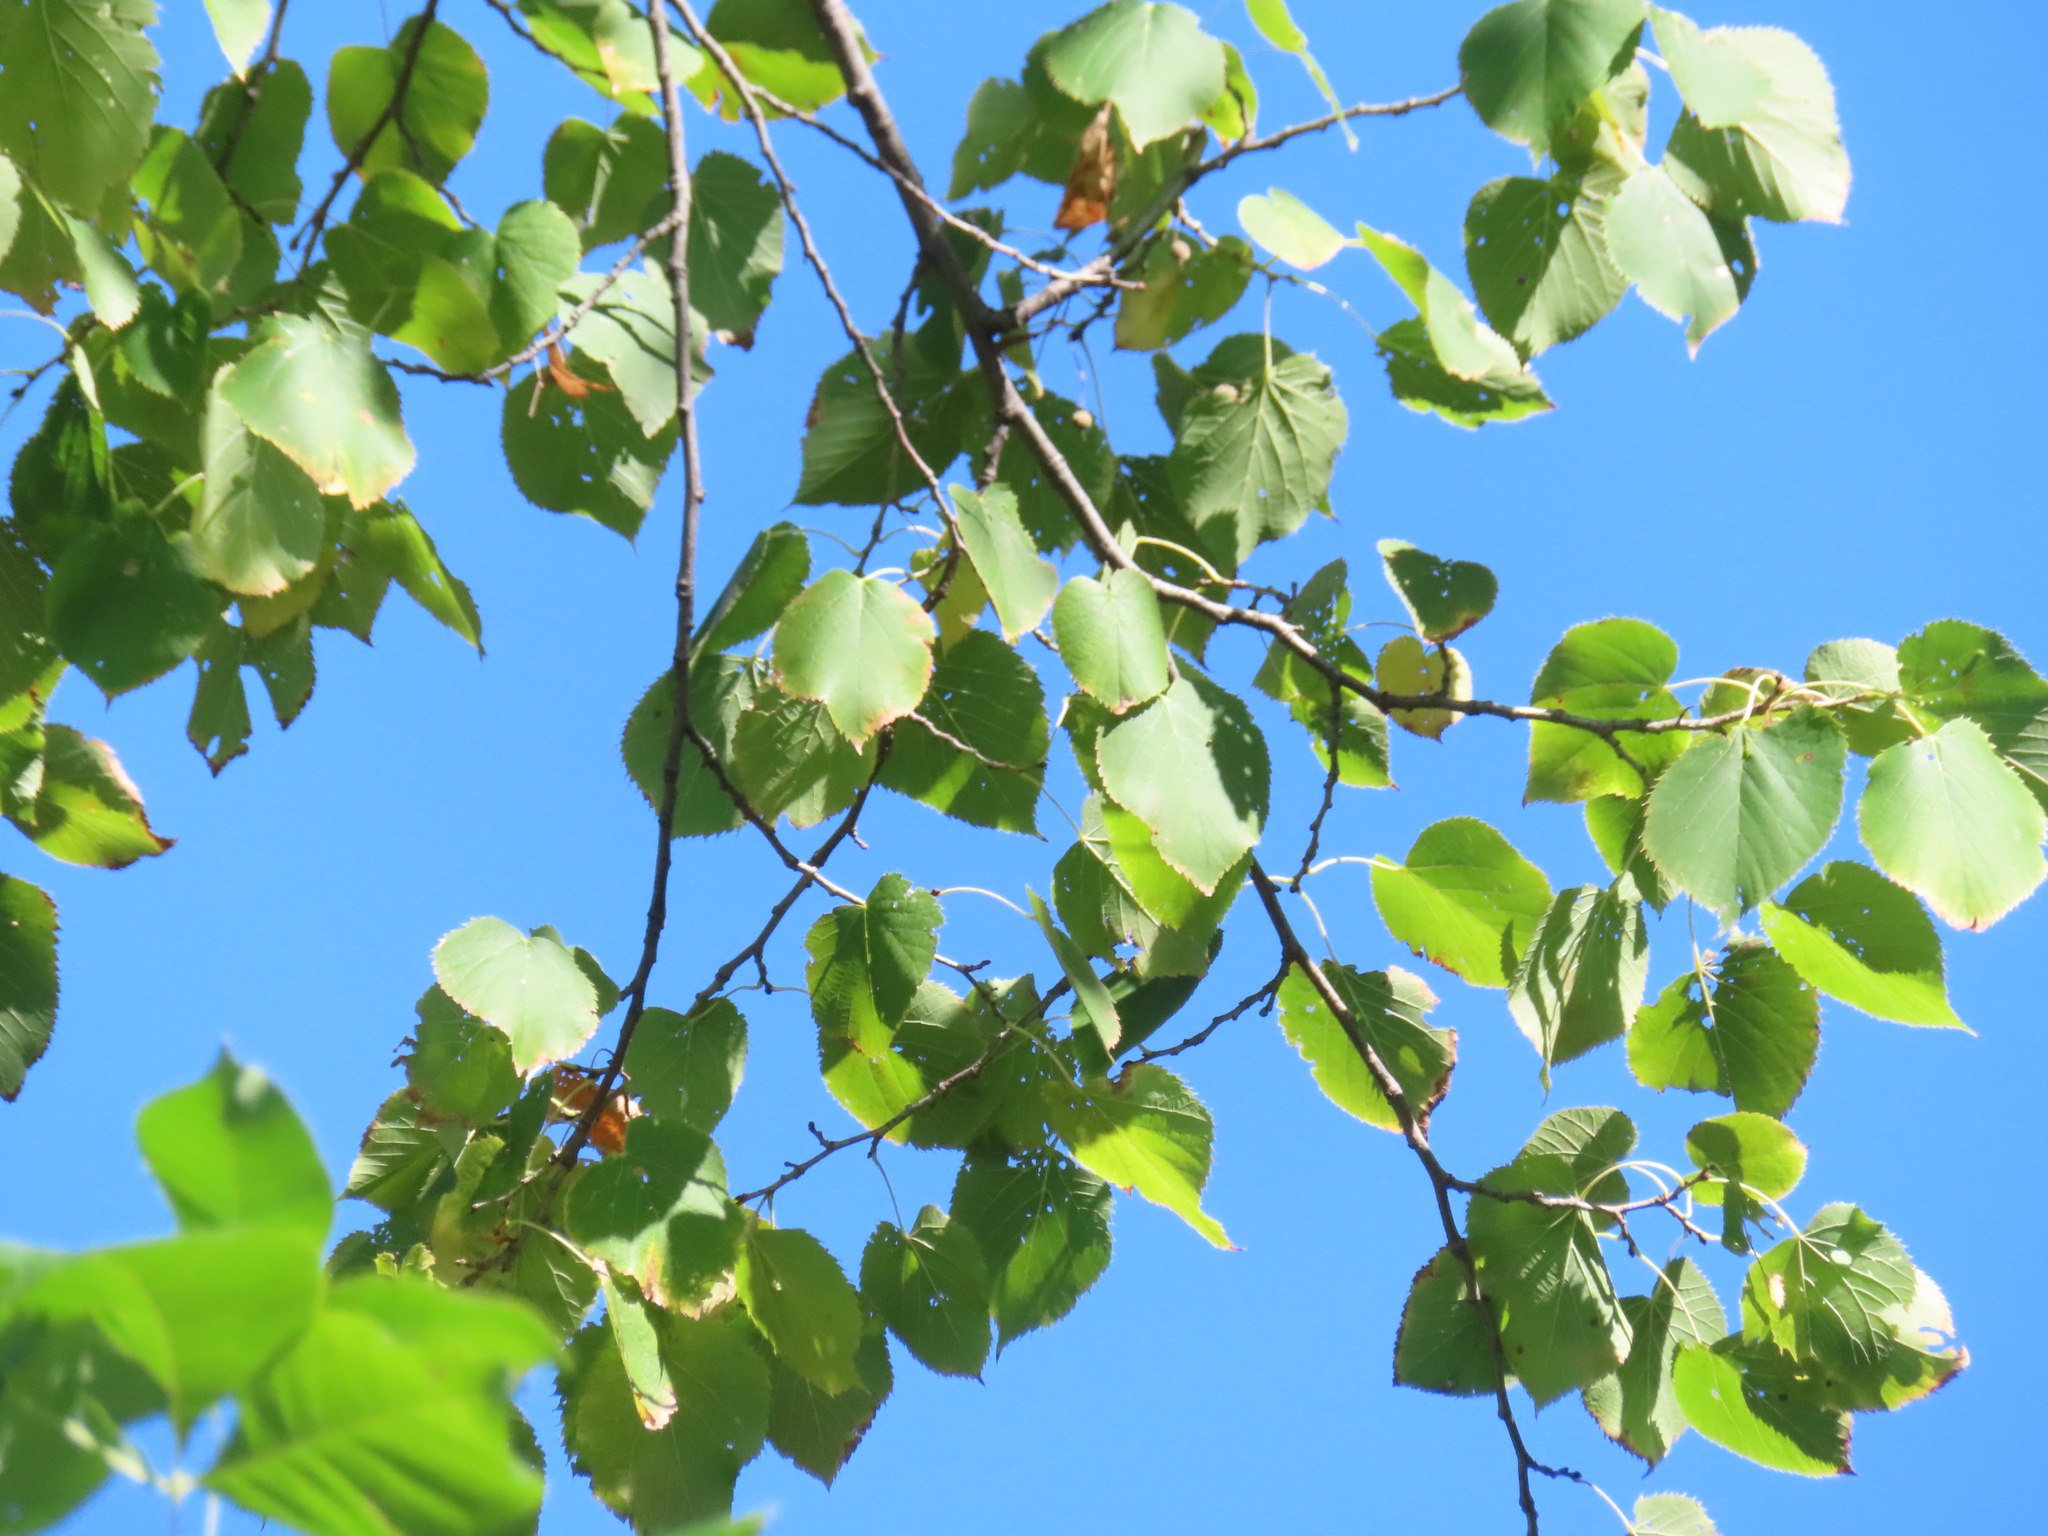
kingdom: Plantae
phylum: Tracheophyta
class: Magnoliopsida
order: Malvales
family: Malvaceae
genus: Tilia
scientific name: Tilia americana
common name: Basswood
